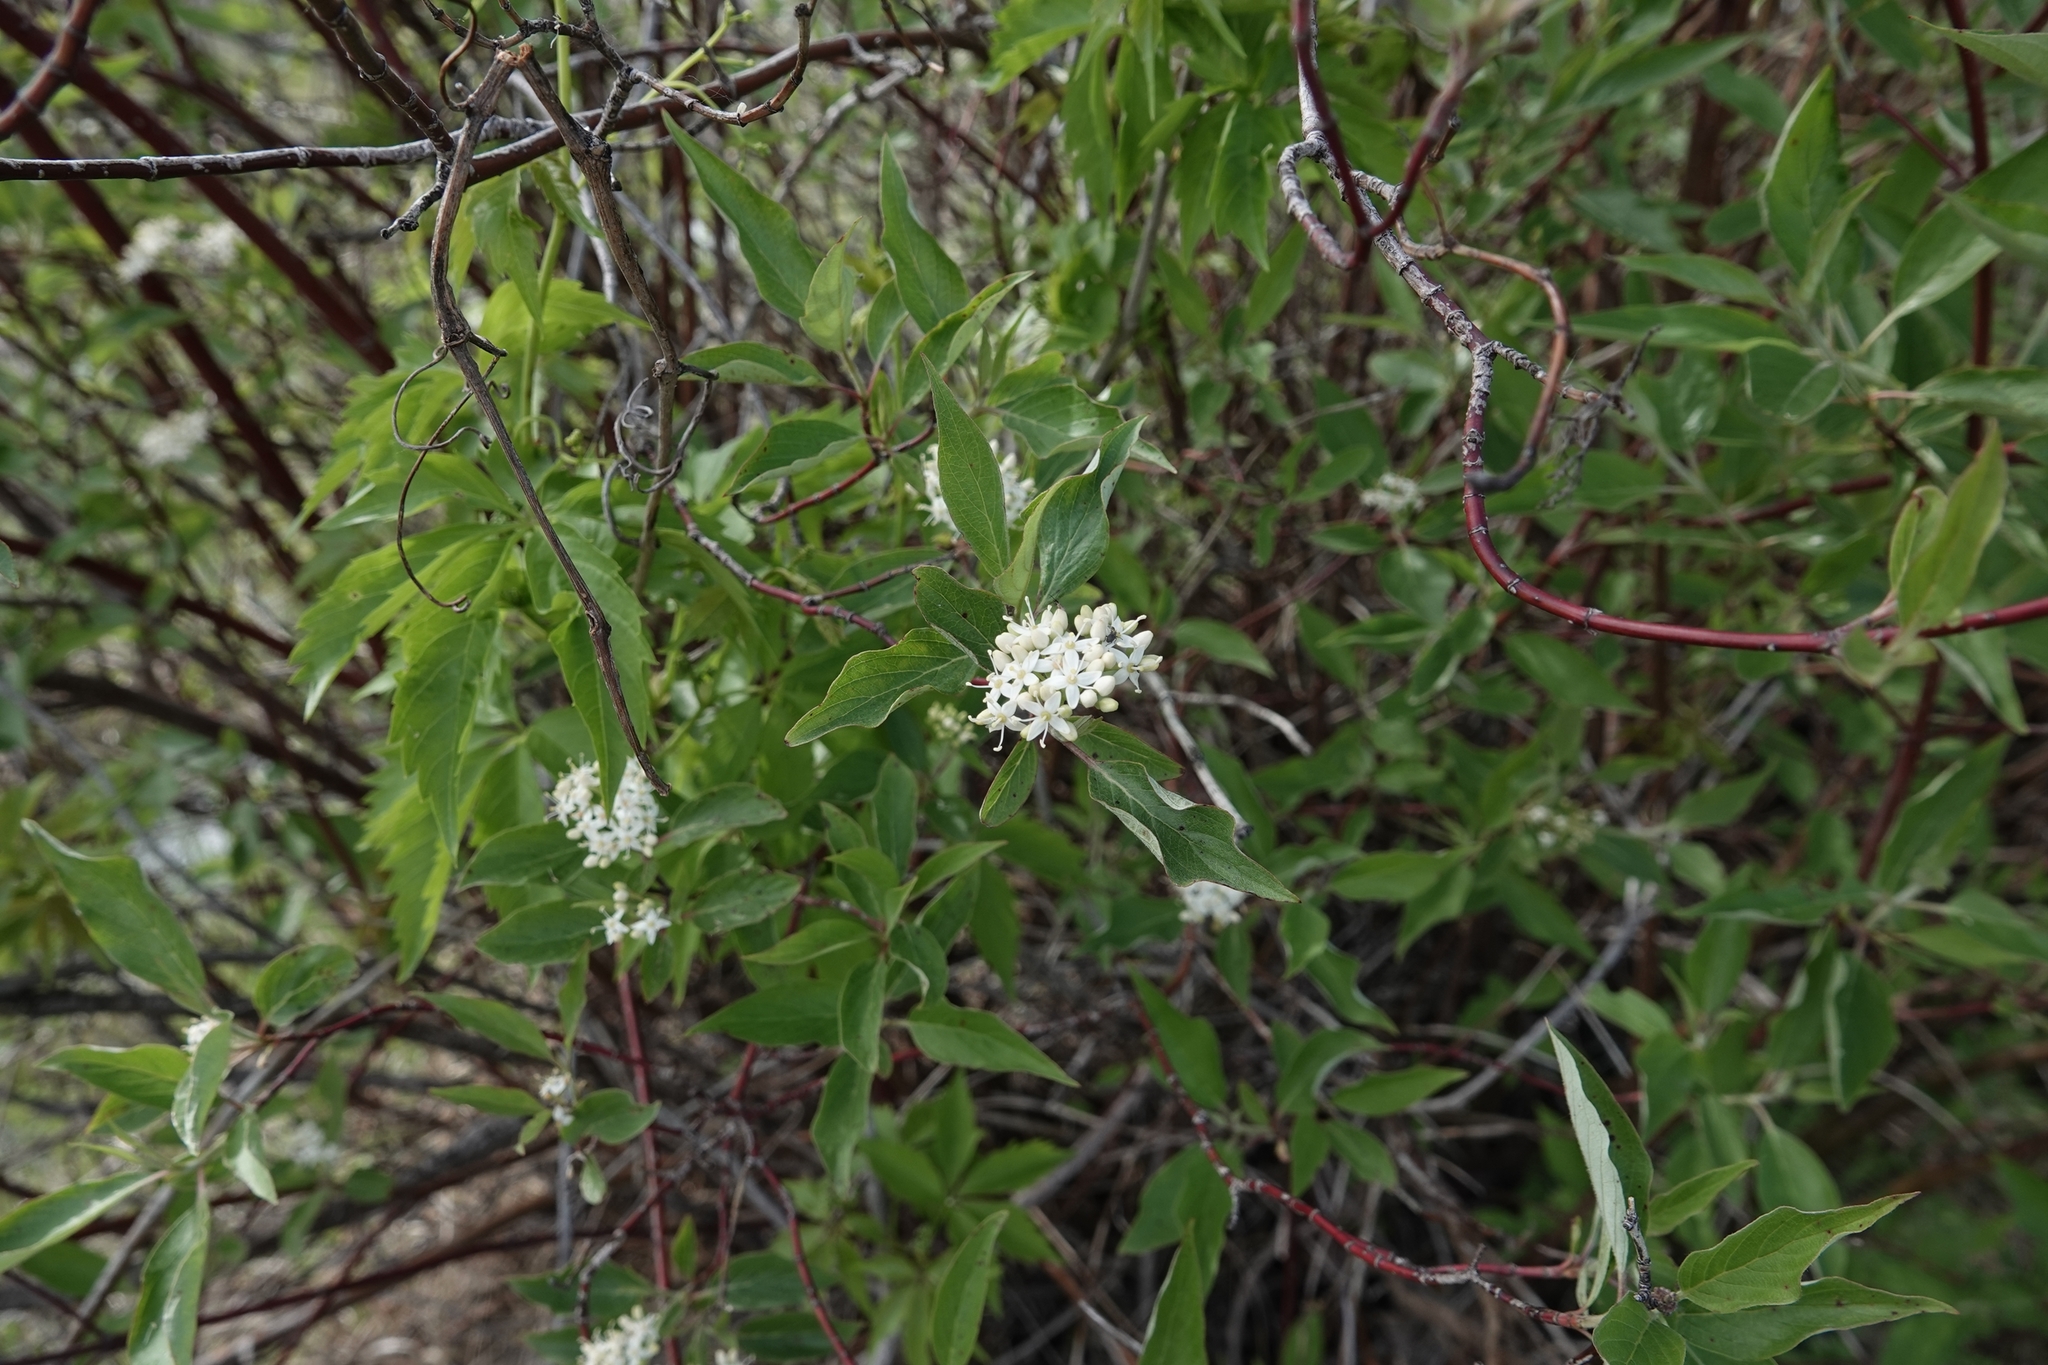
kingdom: Plantae
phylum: Tracheophyta
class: Magnoliopsida
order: Cornales
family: Cornaceae
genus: Cornus
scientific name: Cornus sericea
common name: Red-osier dogwood
